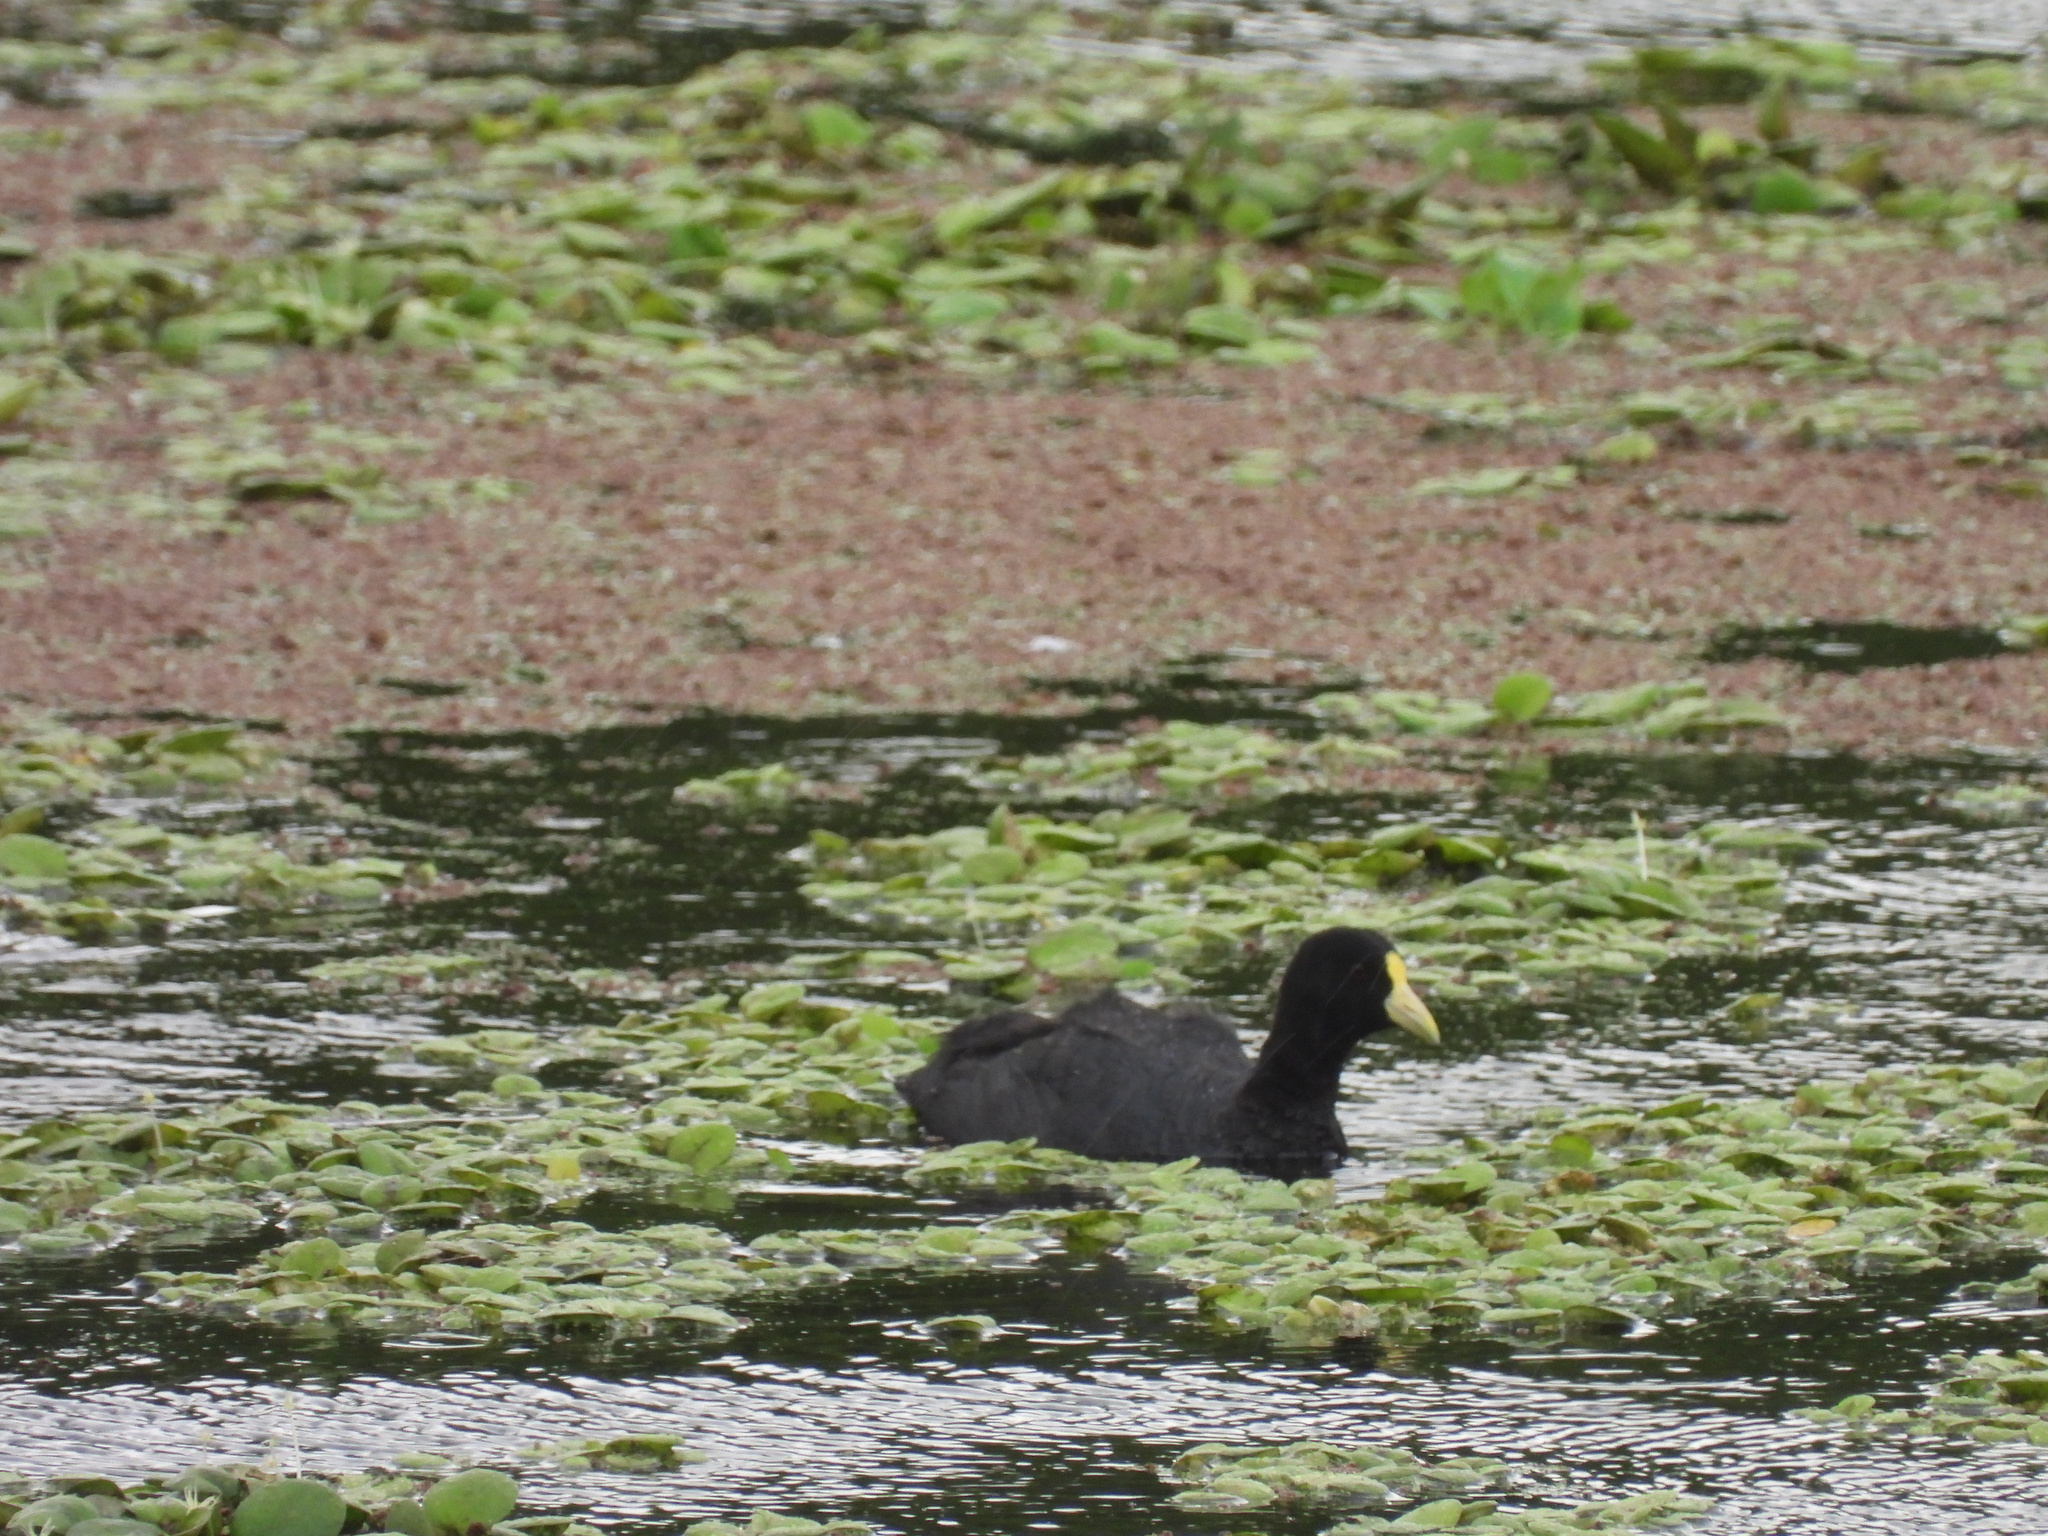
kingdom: Animalia
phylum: Chordata
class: Aves
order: Gruiformes
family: Rallidae
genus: Fulica
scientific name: Fulica leucoptera
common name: White-winged coot
